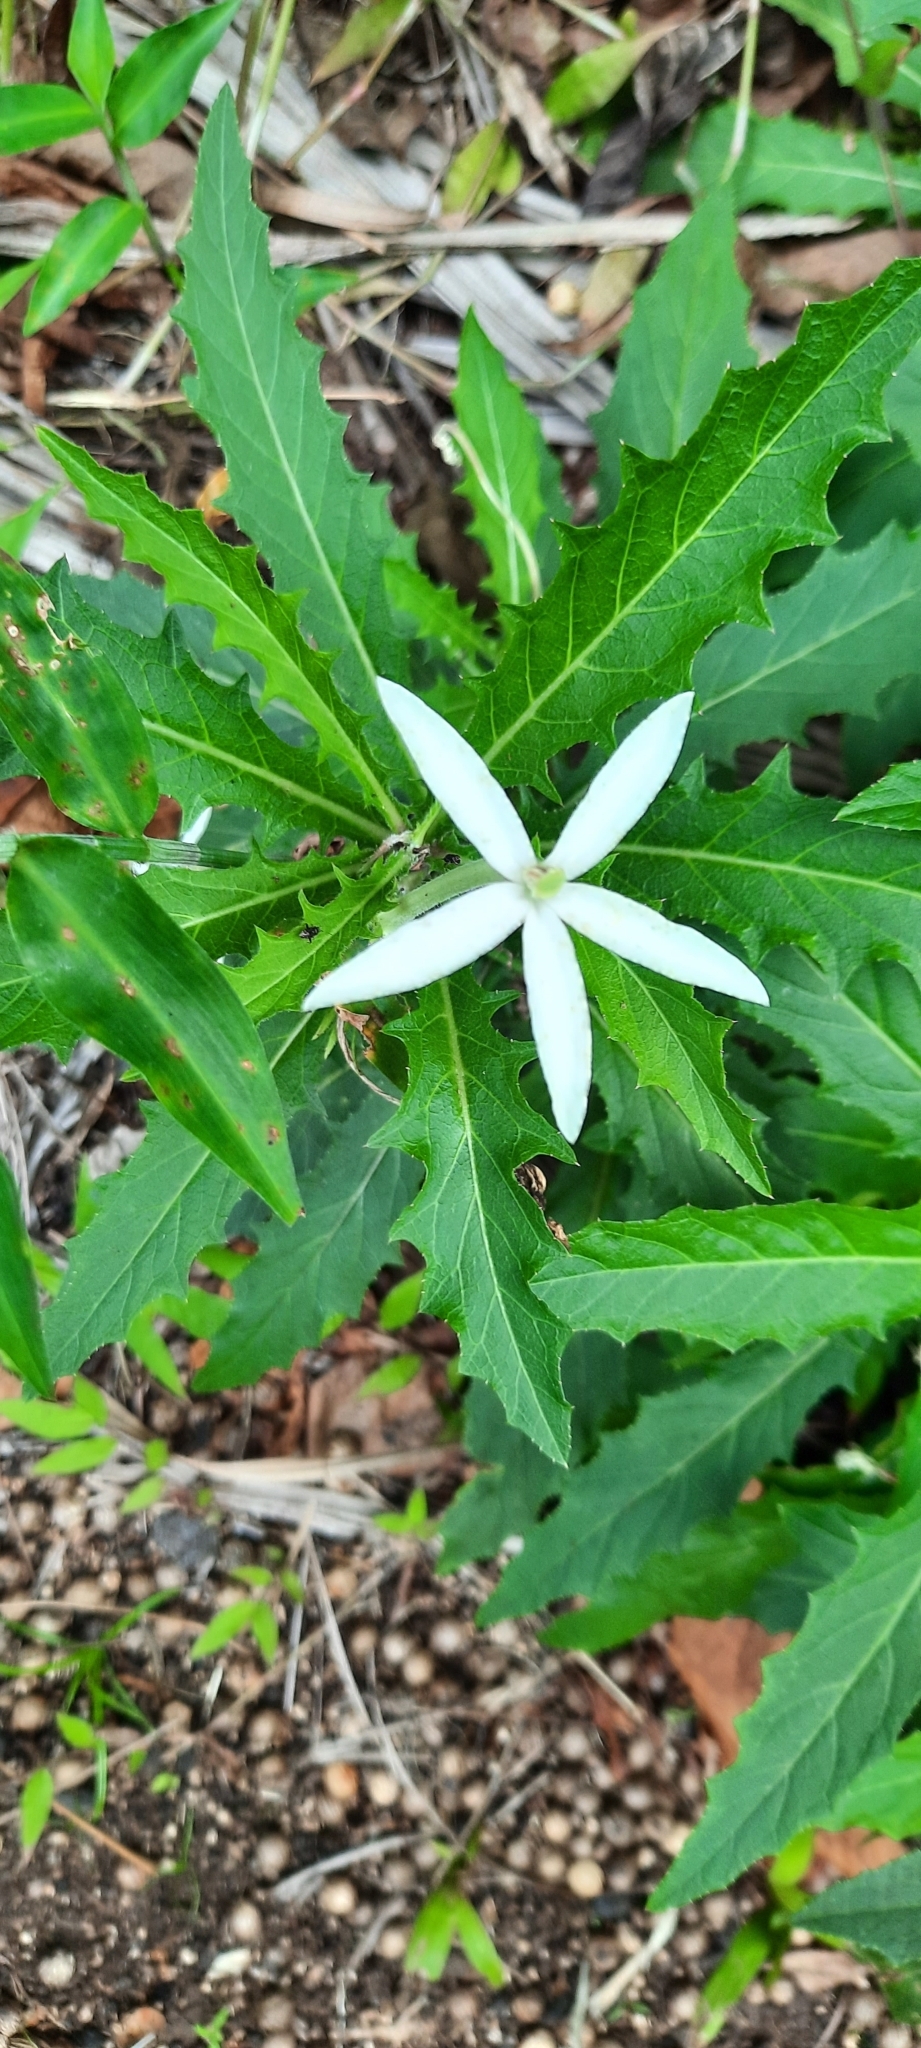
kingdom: Plantae
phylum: Tracheophyta
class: Magnoliopsida
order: Asterales
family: Campanulaceae
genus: Hippobroma
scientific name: Hippobroma longiflora
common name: Madamfate
